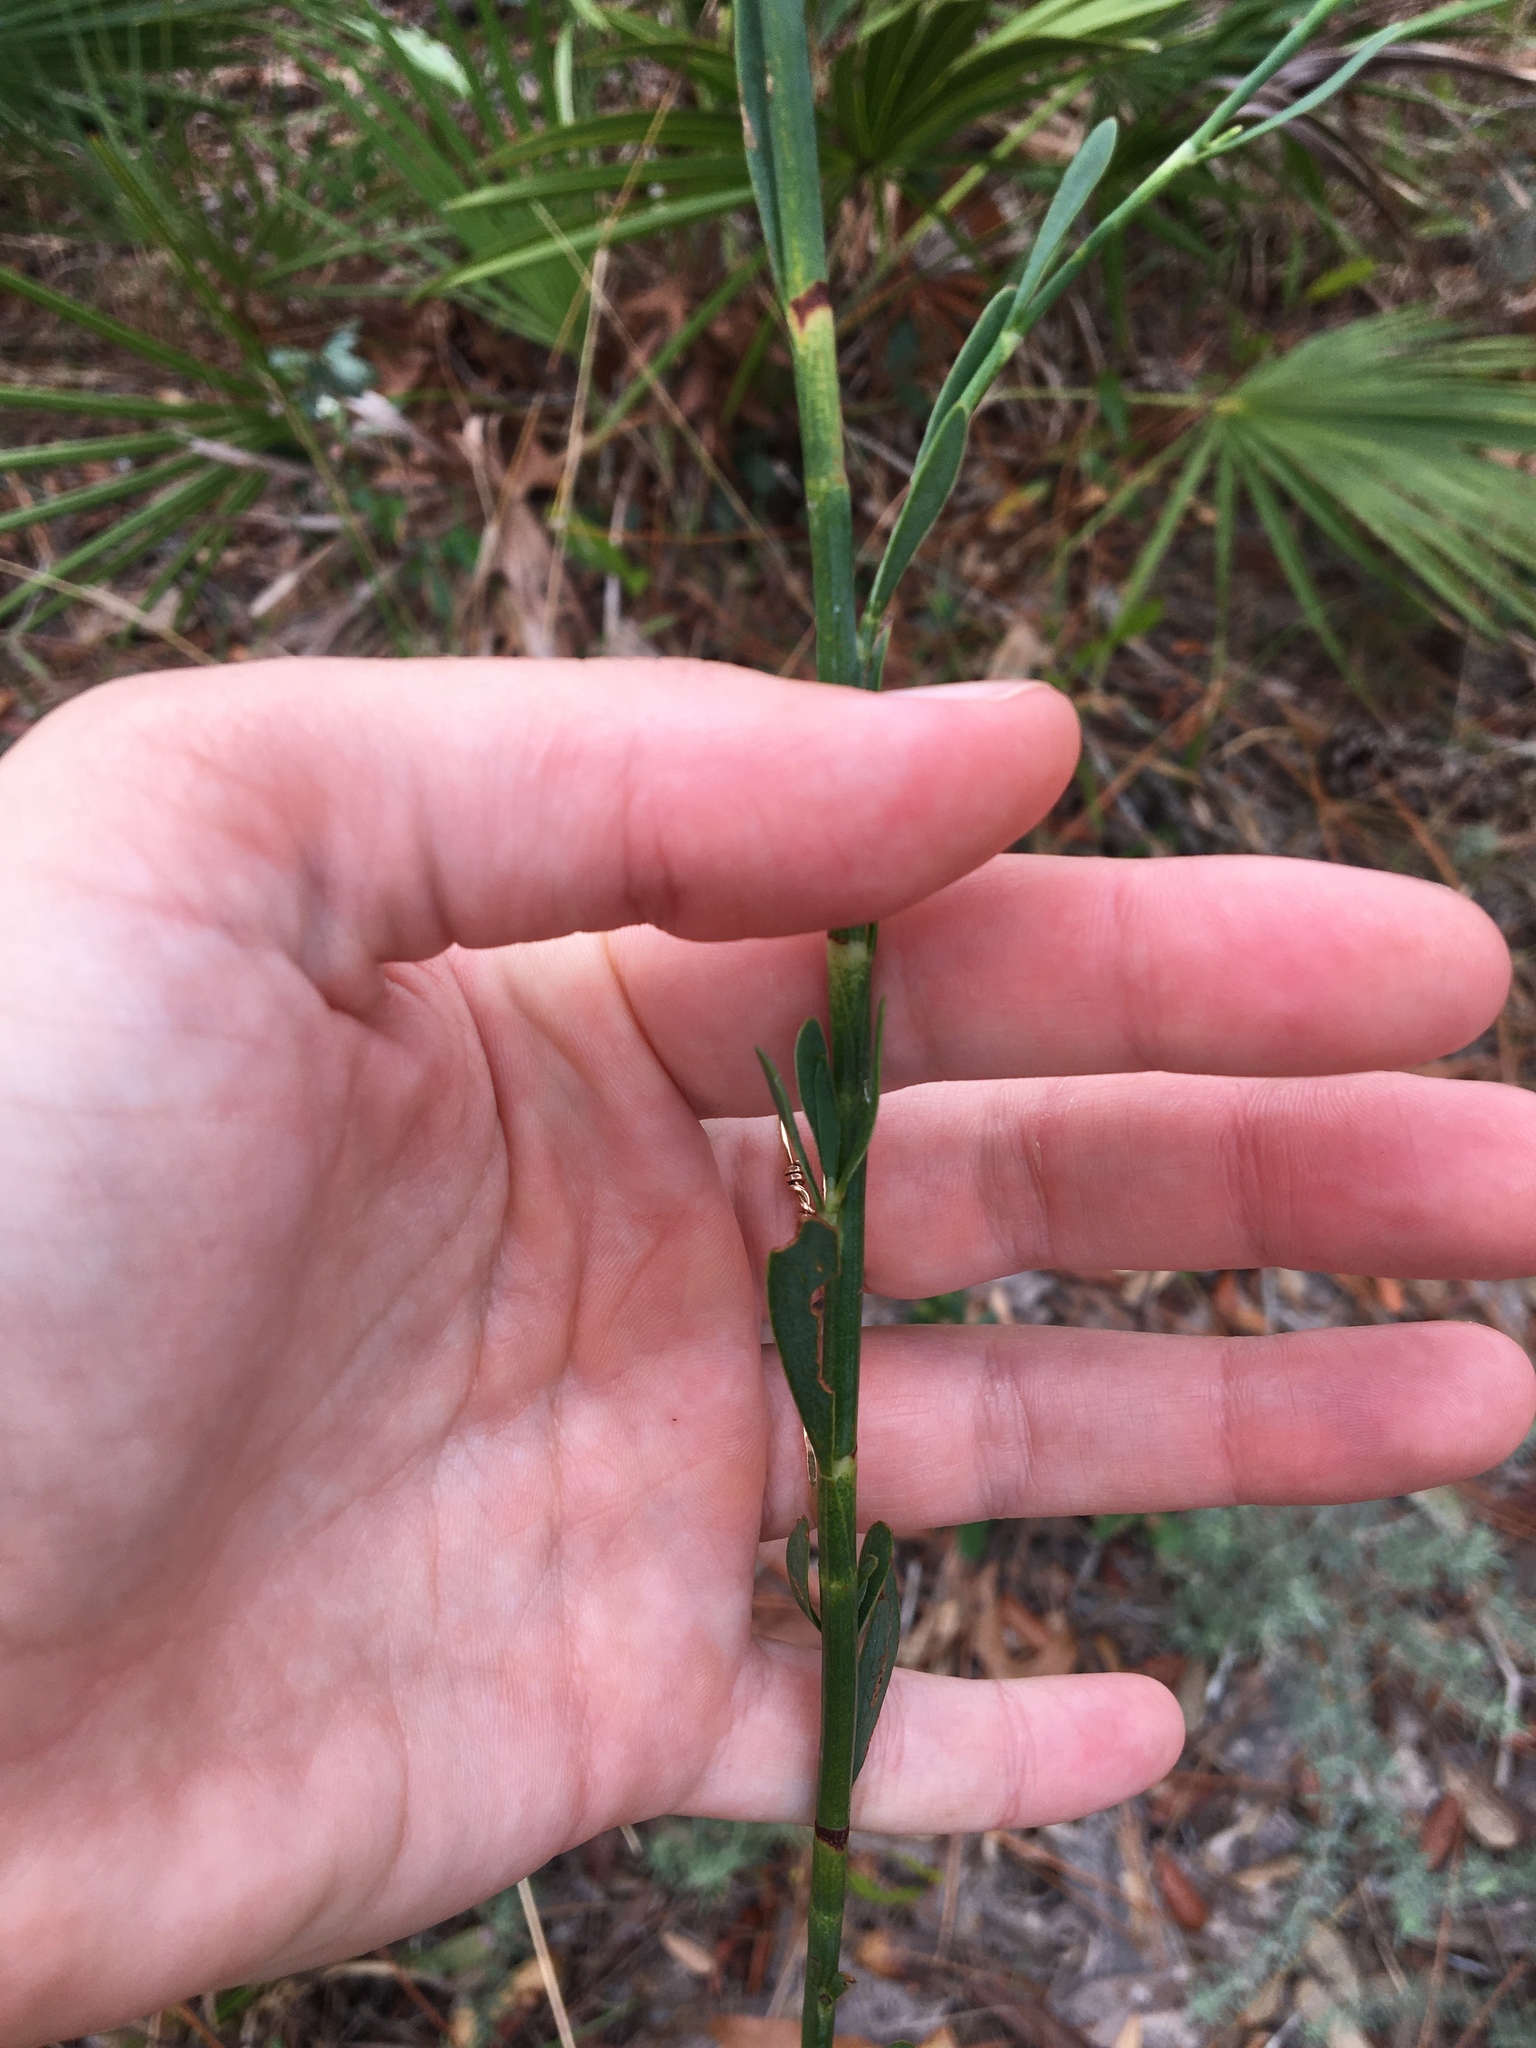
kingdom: Plantae
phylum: Tracheophyta
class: Magnoliopsida
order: Caryophyllales
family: Polygonaceae
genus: Polygonella
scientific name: Polygonella gracilis
